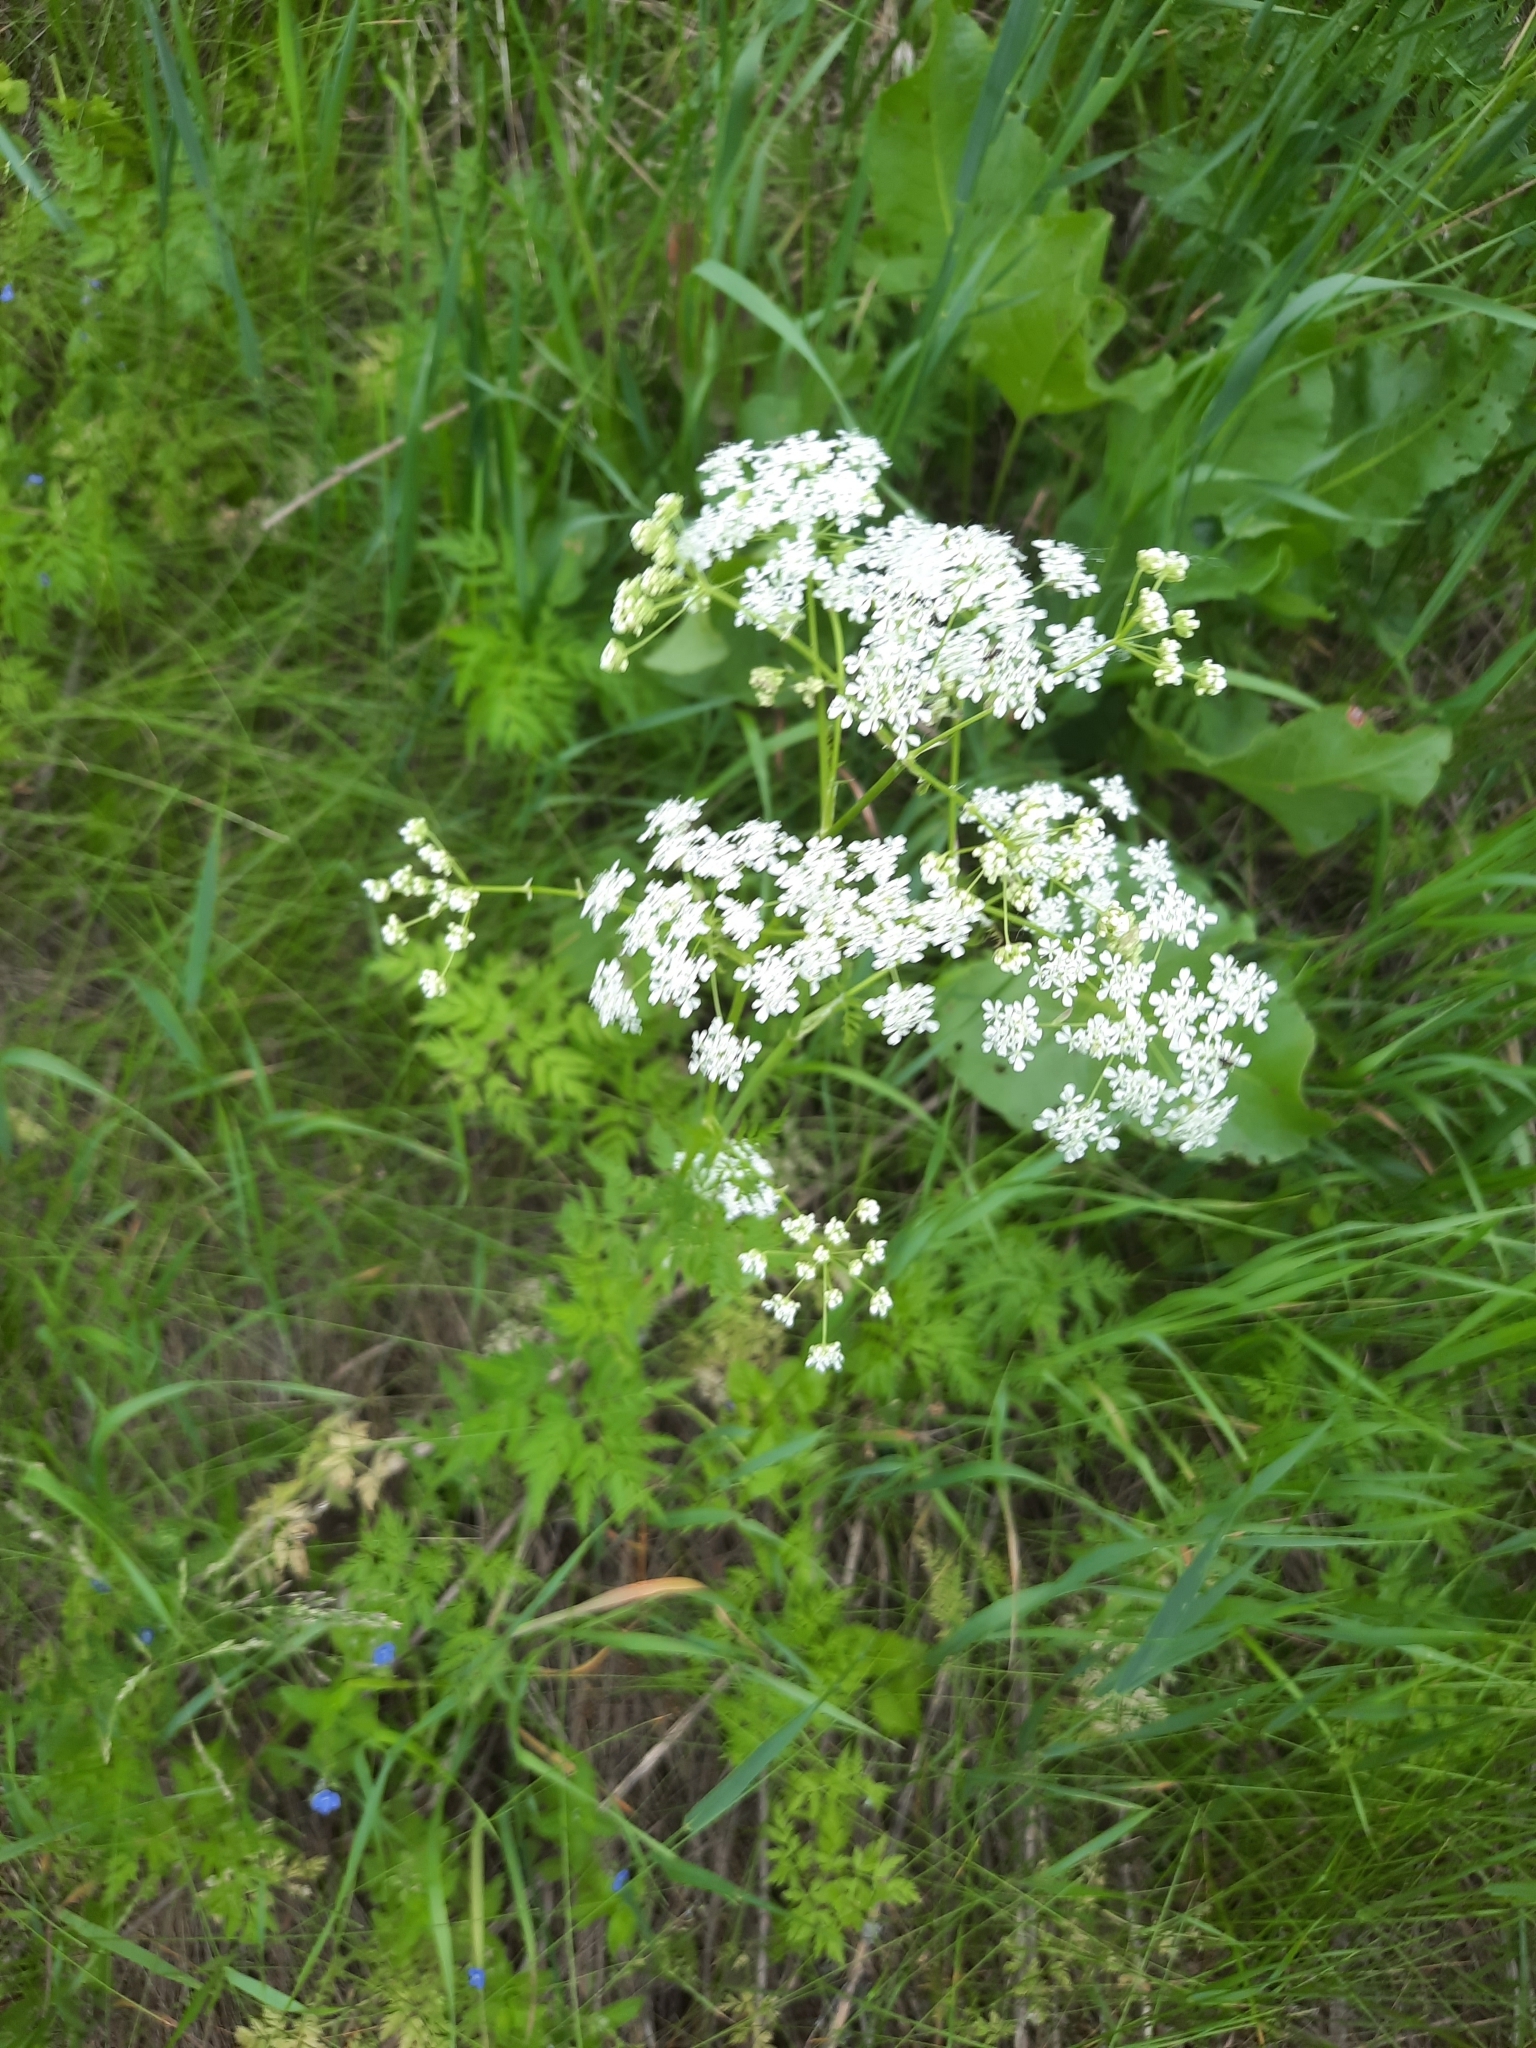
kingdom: Plantae
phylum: Tracheophyta
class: Magnoliopsida
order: Apiales
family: Apiaceae
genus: Anthriscus
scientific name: Anthriscus sylvestris
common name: Cow parsley
